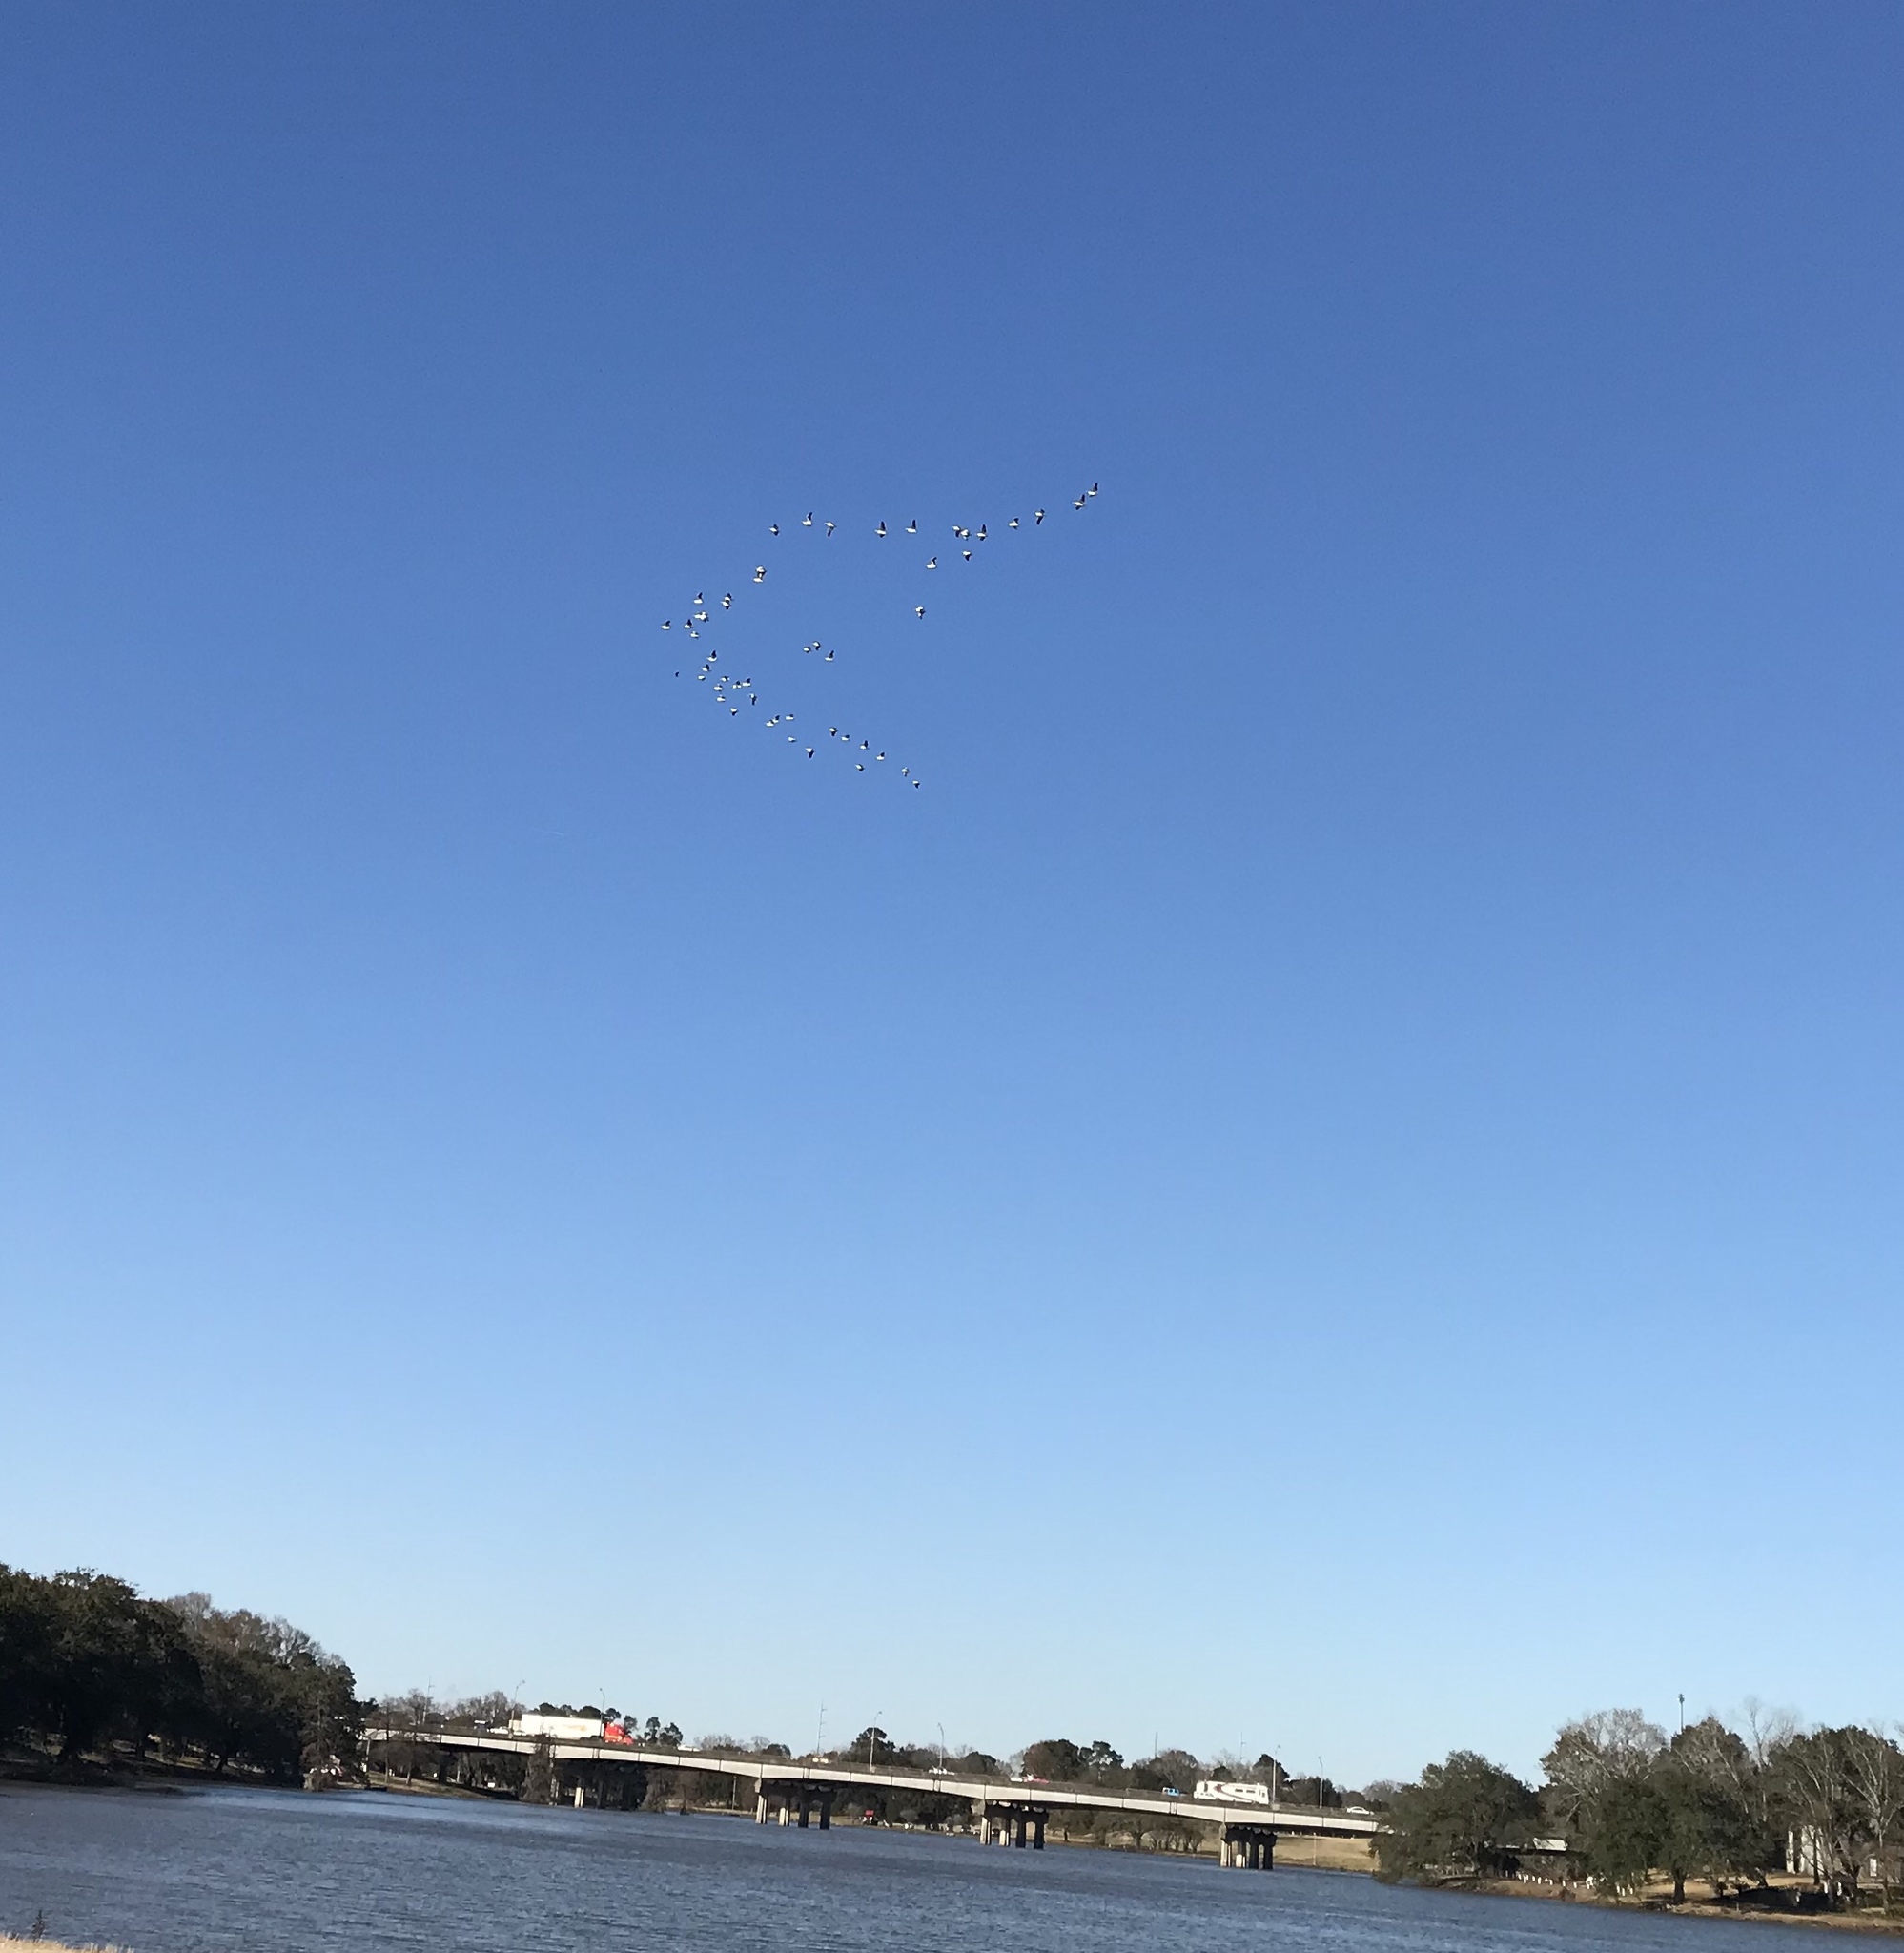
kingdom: Animalia
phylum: Chordata
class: Aves
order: Pelecaniformes
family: Pelecanidae
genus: Pelecanus
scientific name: Pelecanus erythrorhynchos
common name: American white pelican
